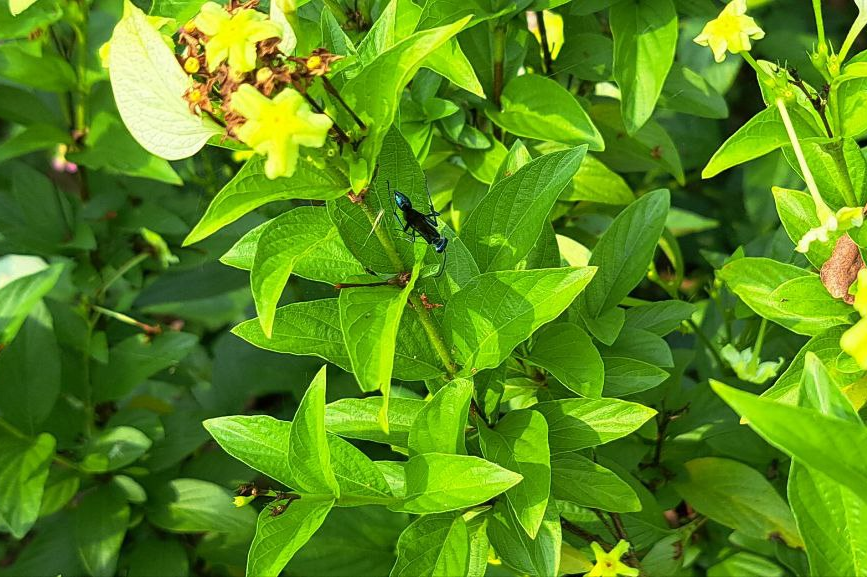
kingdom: Animalia
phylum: Arthropoda
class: Insecta
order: Hymenoptera
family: Sphecidae
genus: Chalybion
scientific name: Chalybion bengalense
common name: Mud dauber
